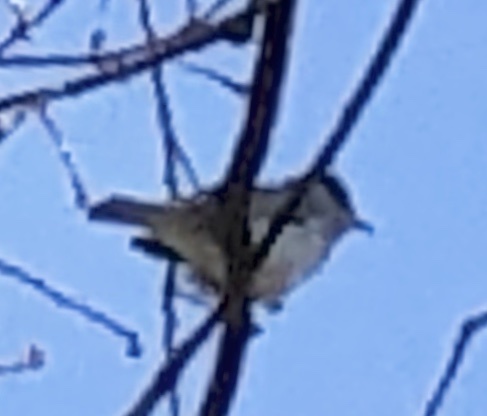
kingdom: Animalia
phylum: Chordata
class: Aves
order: Passeriformes
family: Sylviidae
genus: Sylvia
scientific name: Sylvia atricapilla
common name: Eurasian blackcap
